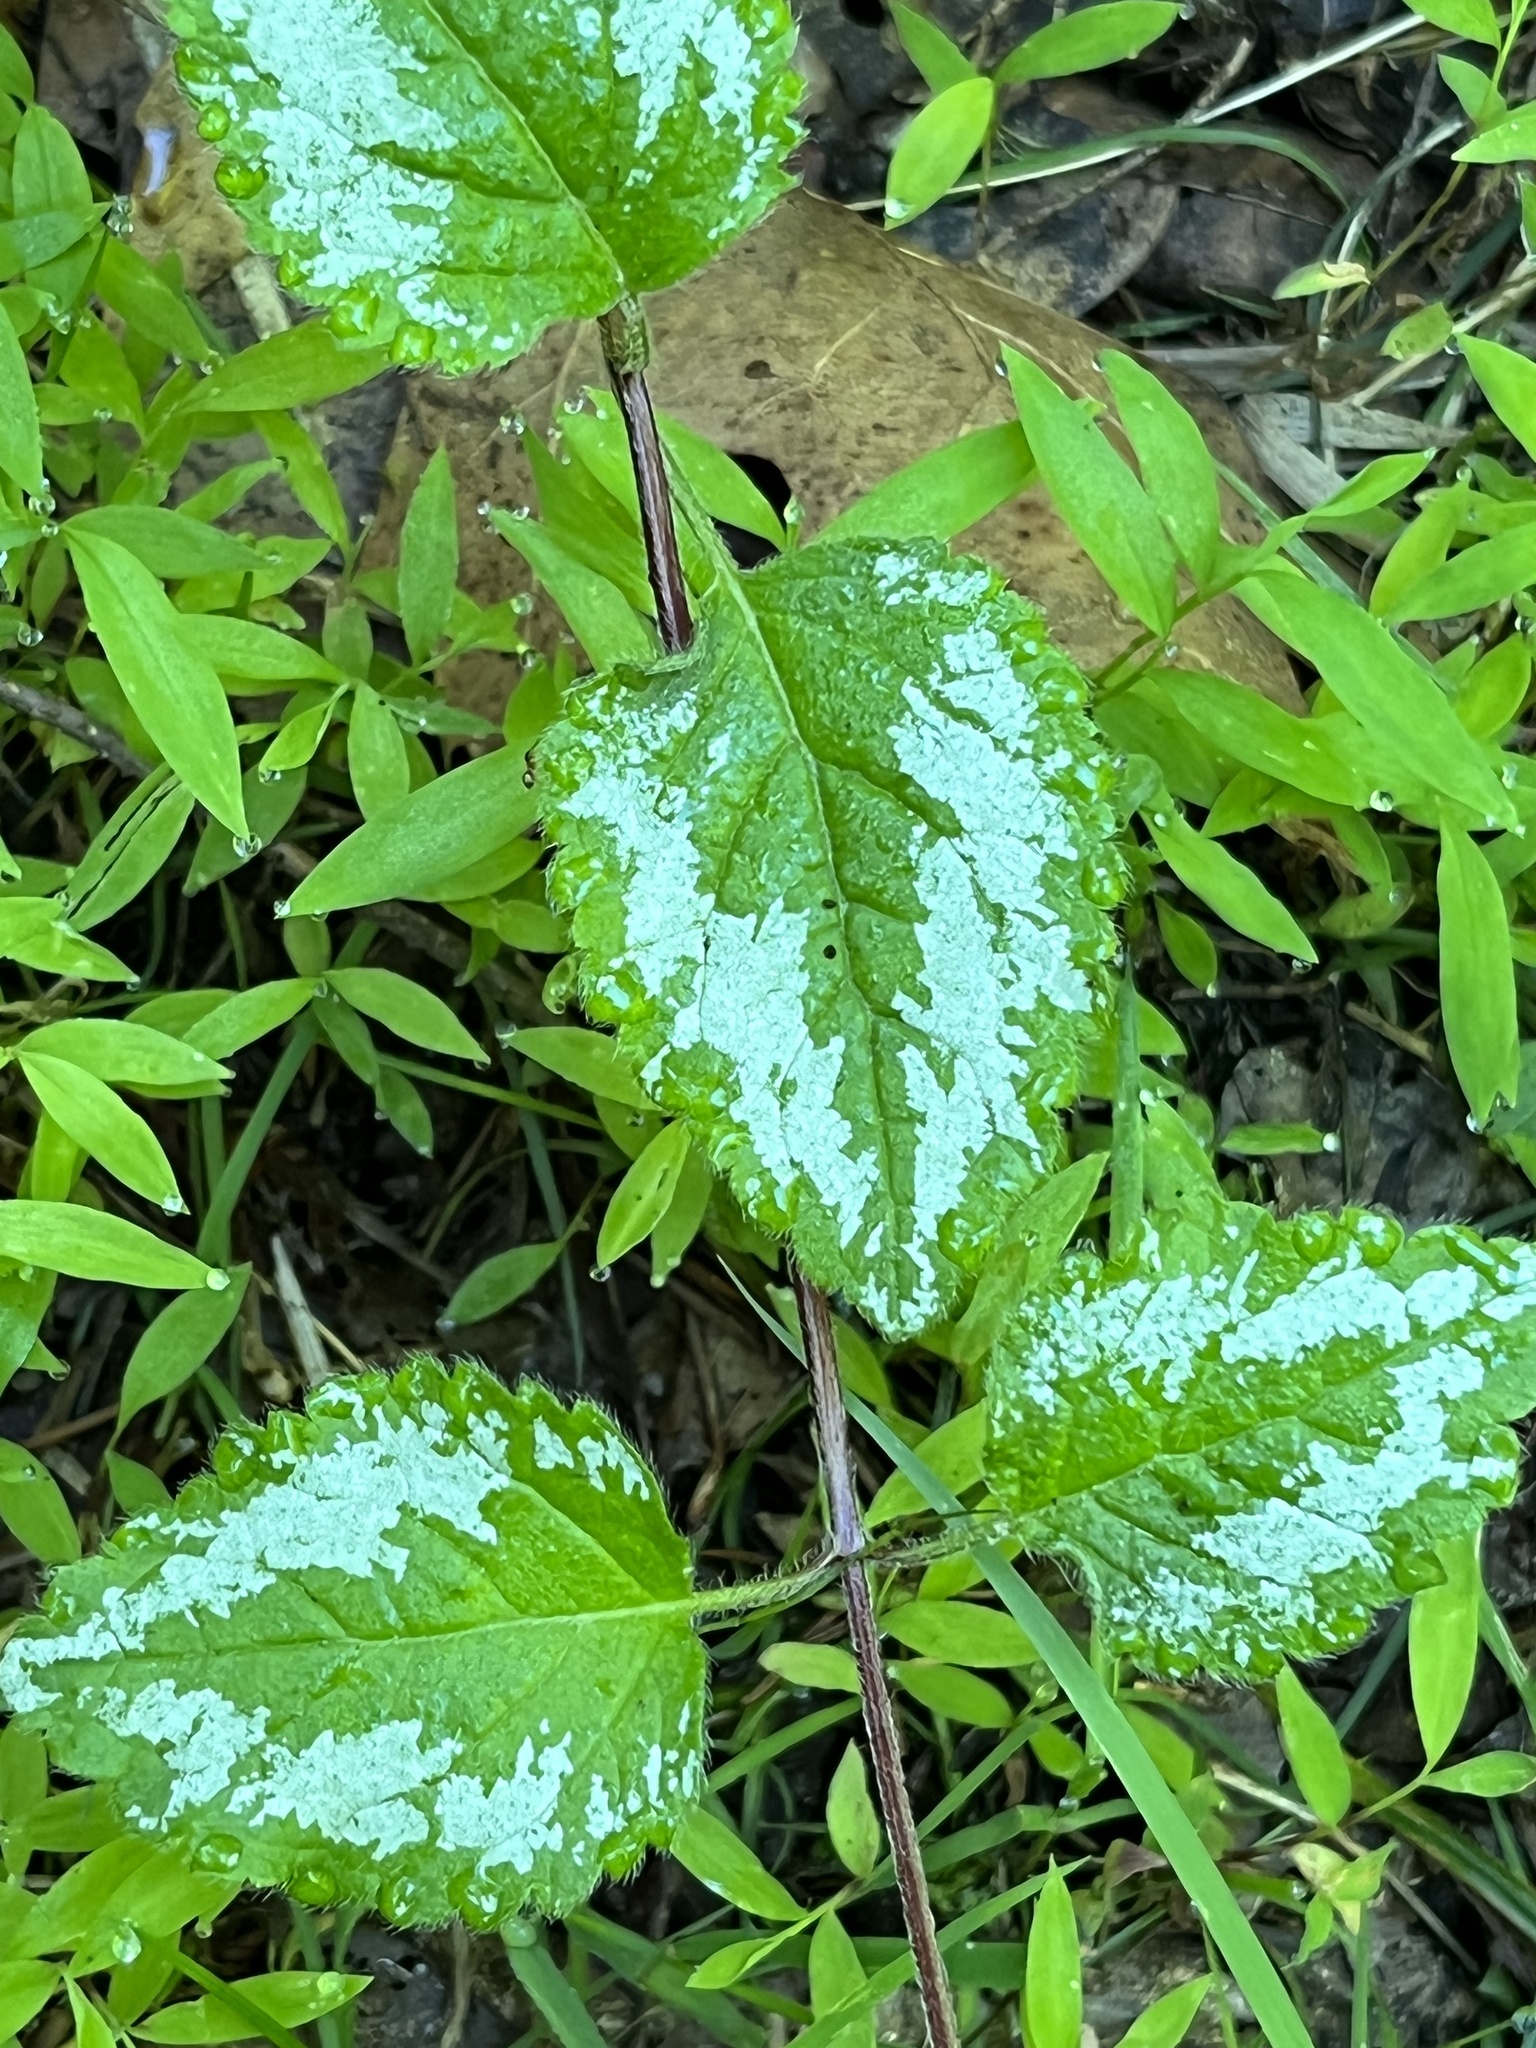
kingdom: Plantae
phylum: Tracheophyta
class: Magnoliopsida
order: Lamiales
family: Lamiaceae
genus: Lamium
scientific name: Lamium galeobdolon
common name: Yellow archangel
